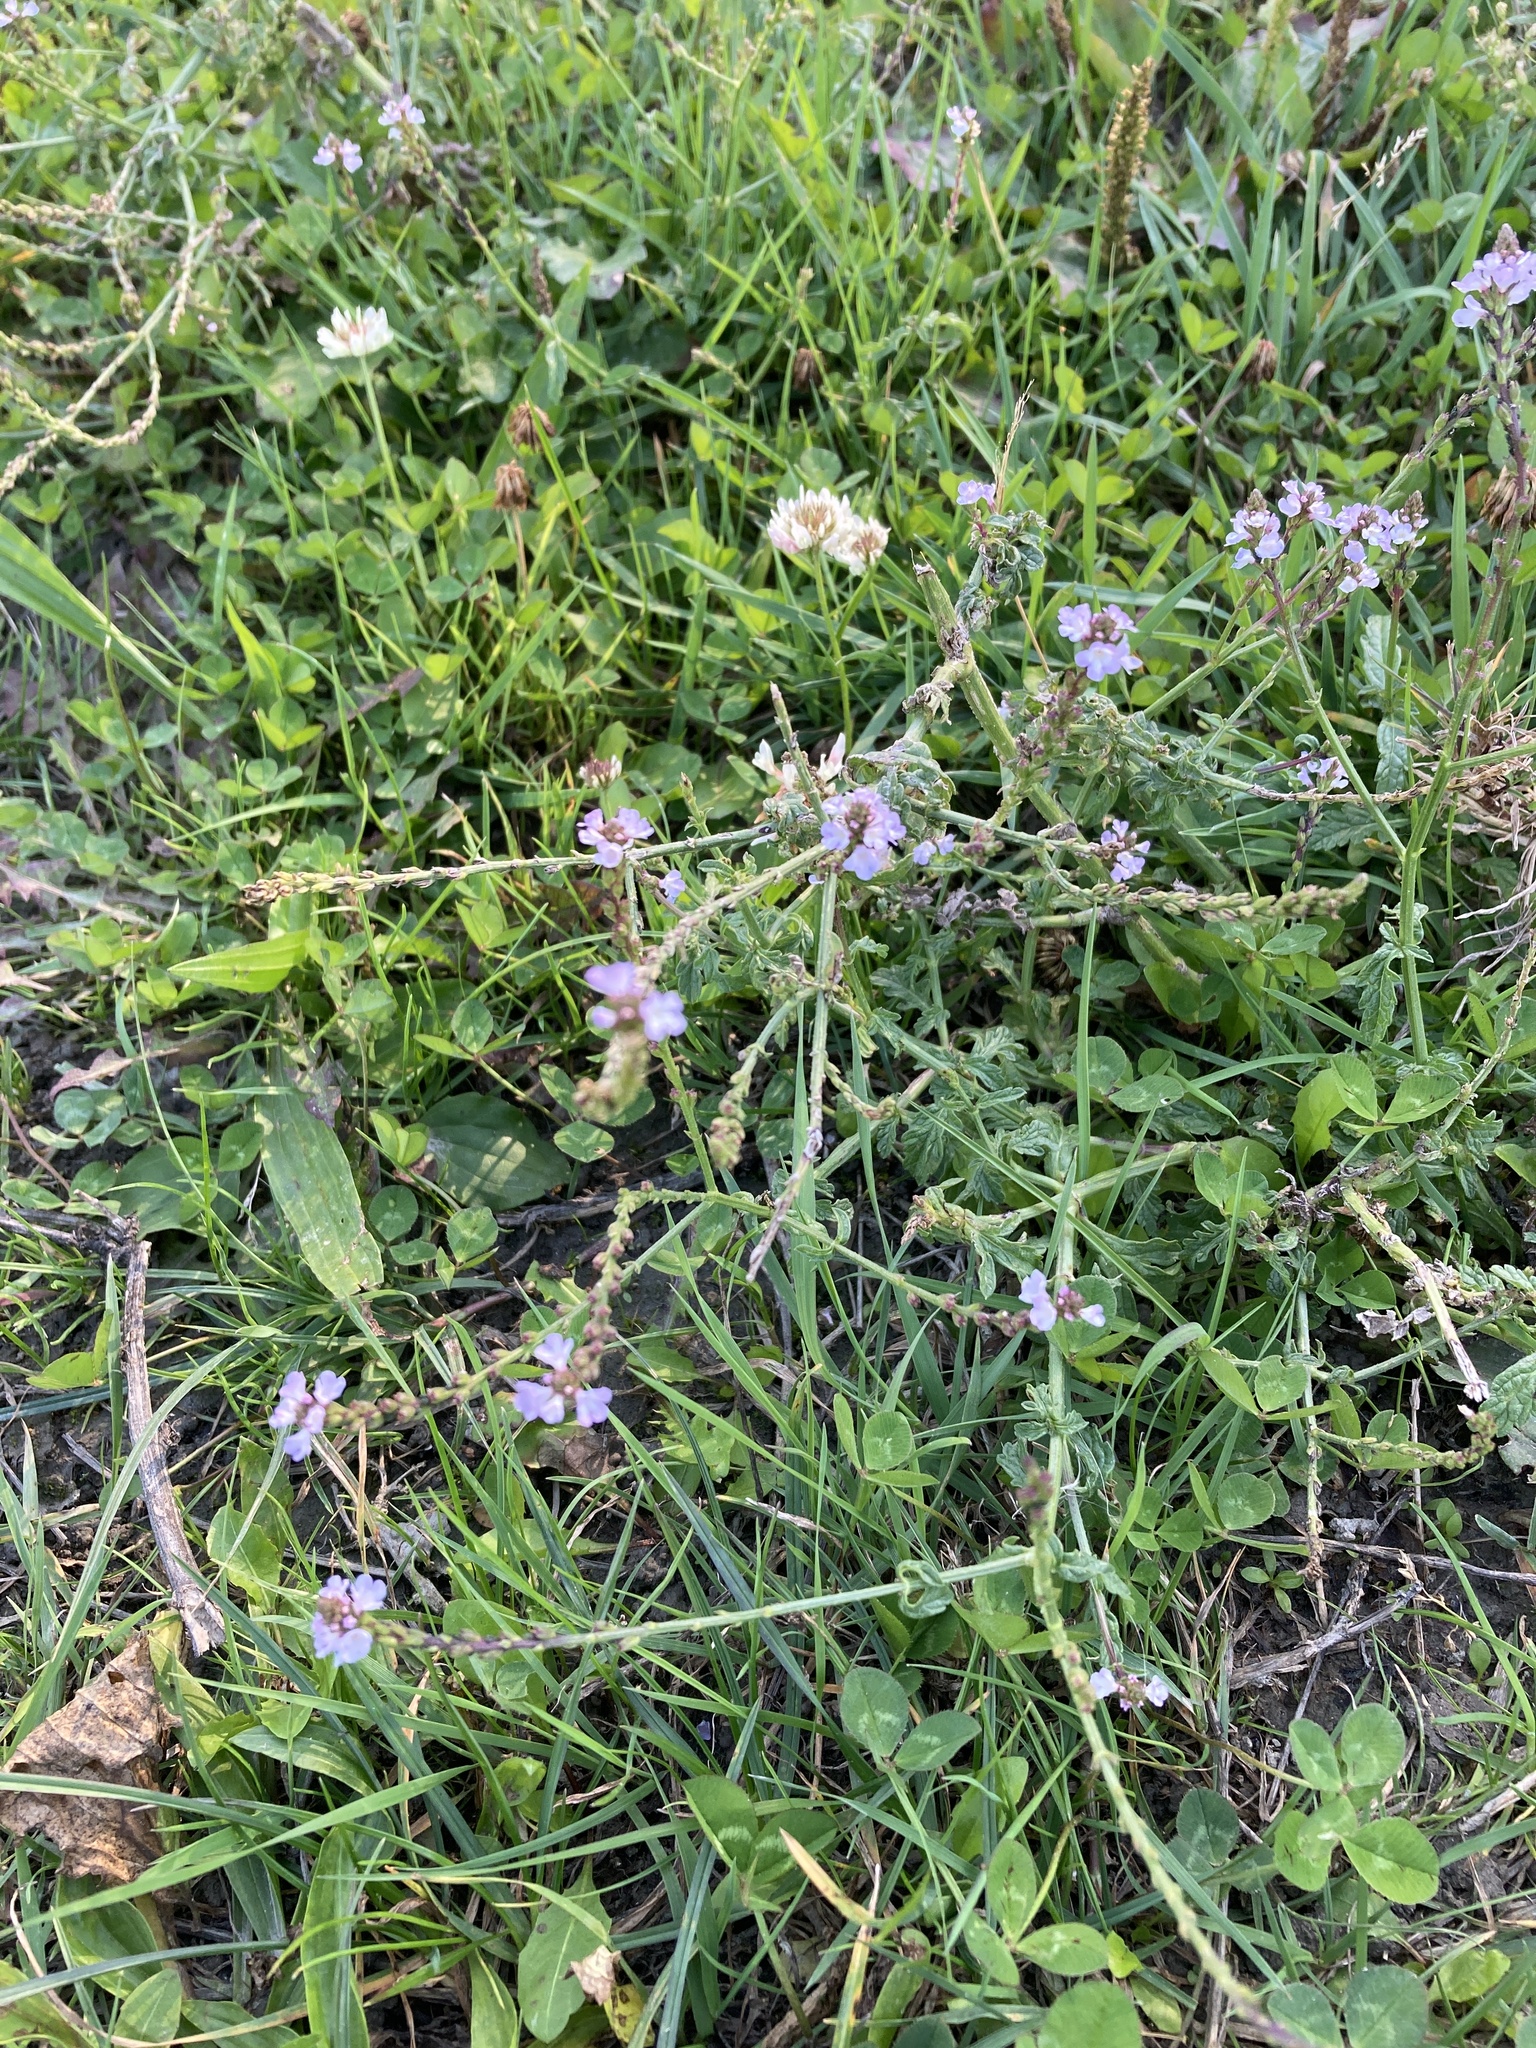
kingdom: Plantae
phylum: Tracheophyta
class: Magnoliopsida
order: Lamiales
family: Verbenaceae
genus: Verbena
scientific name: Verbena officinalis
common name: Vervain
